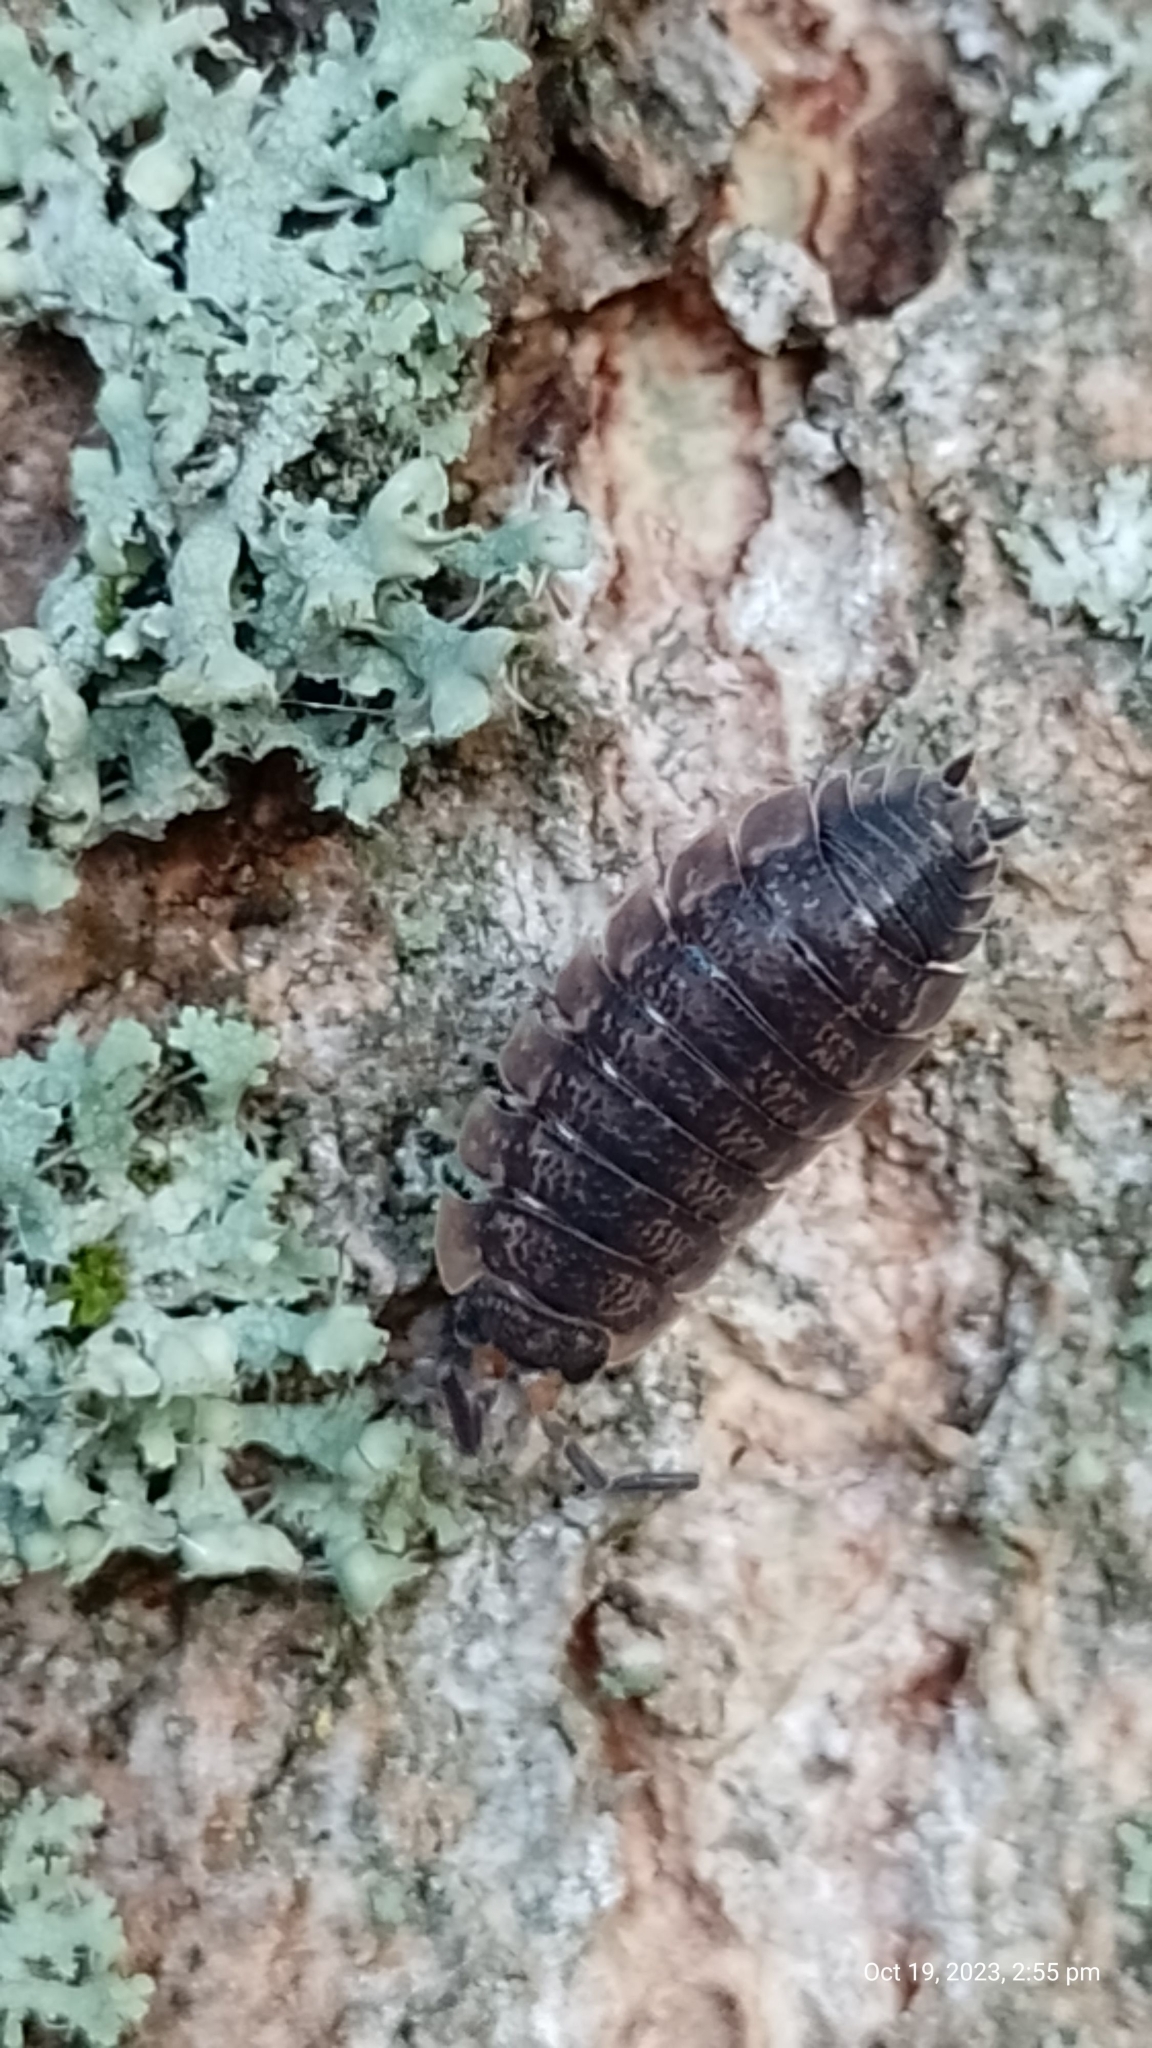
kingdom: Animalia
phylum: Arthropoda
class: Malacostraca
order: Isopoda
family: Porcellionidae
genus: Porcellio
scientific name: Porcellio scaber
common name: Common rough woodlouse
